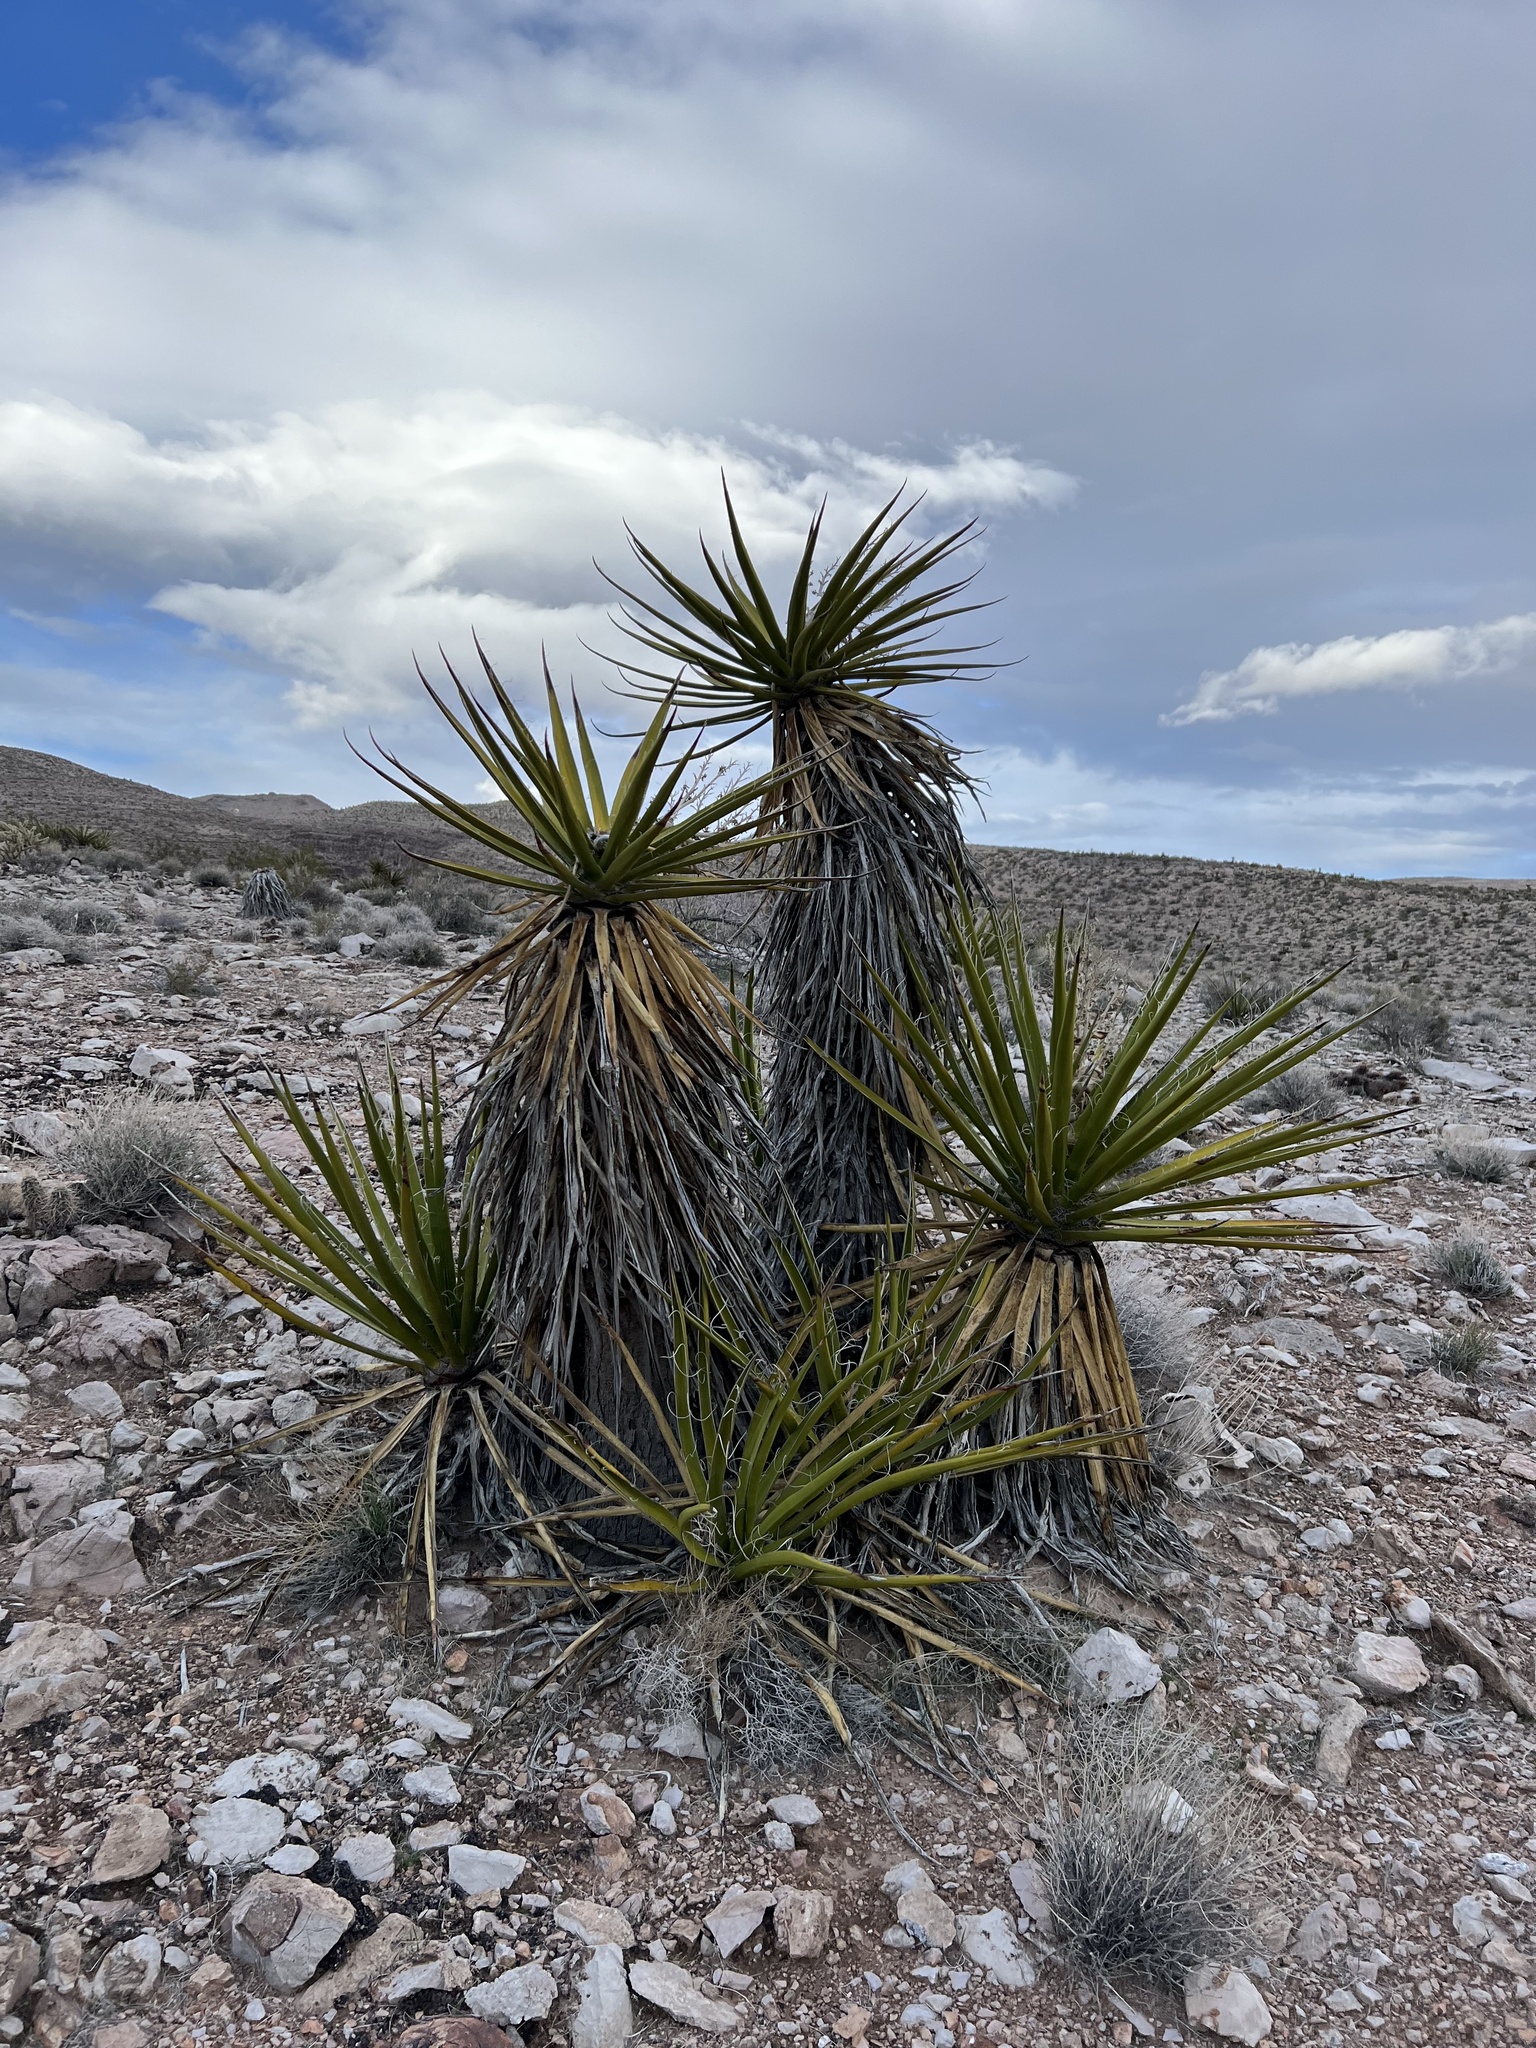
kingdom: Plantae
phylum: Tracheophyta
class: Liliopsida
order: Asparagales
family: Asparagaceae
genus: Yucca
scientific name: Yucca schidigera
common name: Mojave yucca
